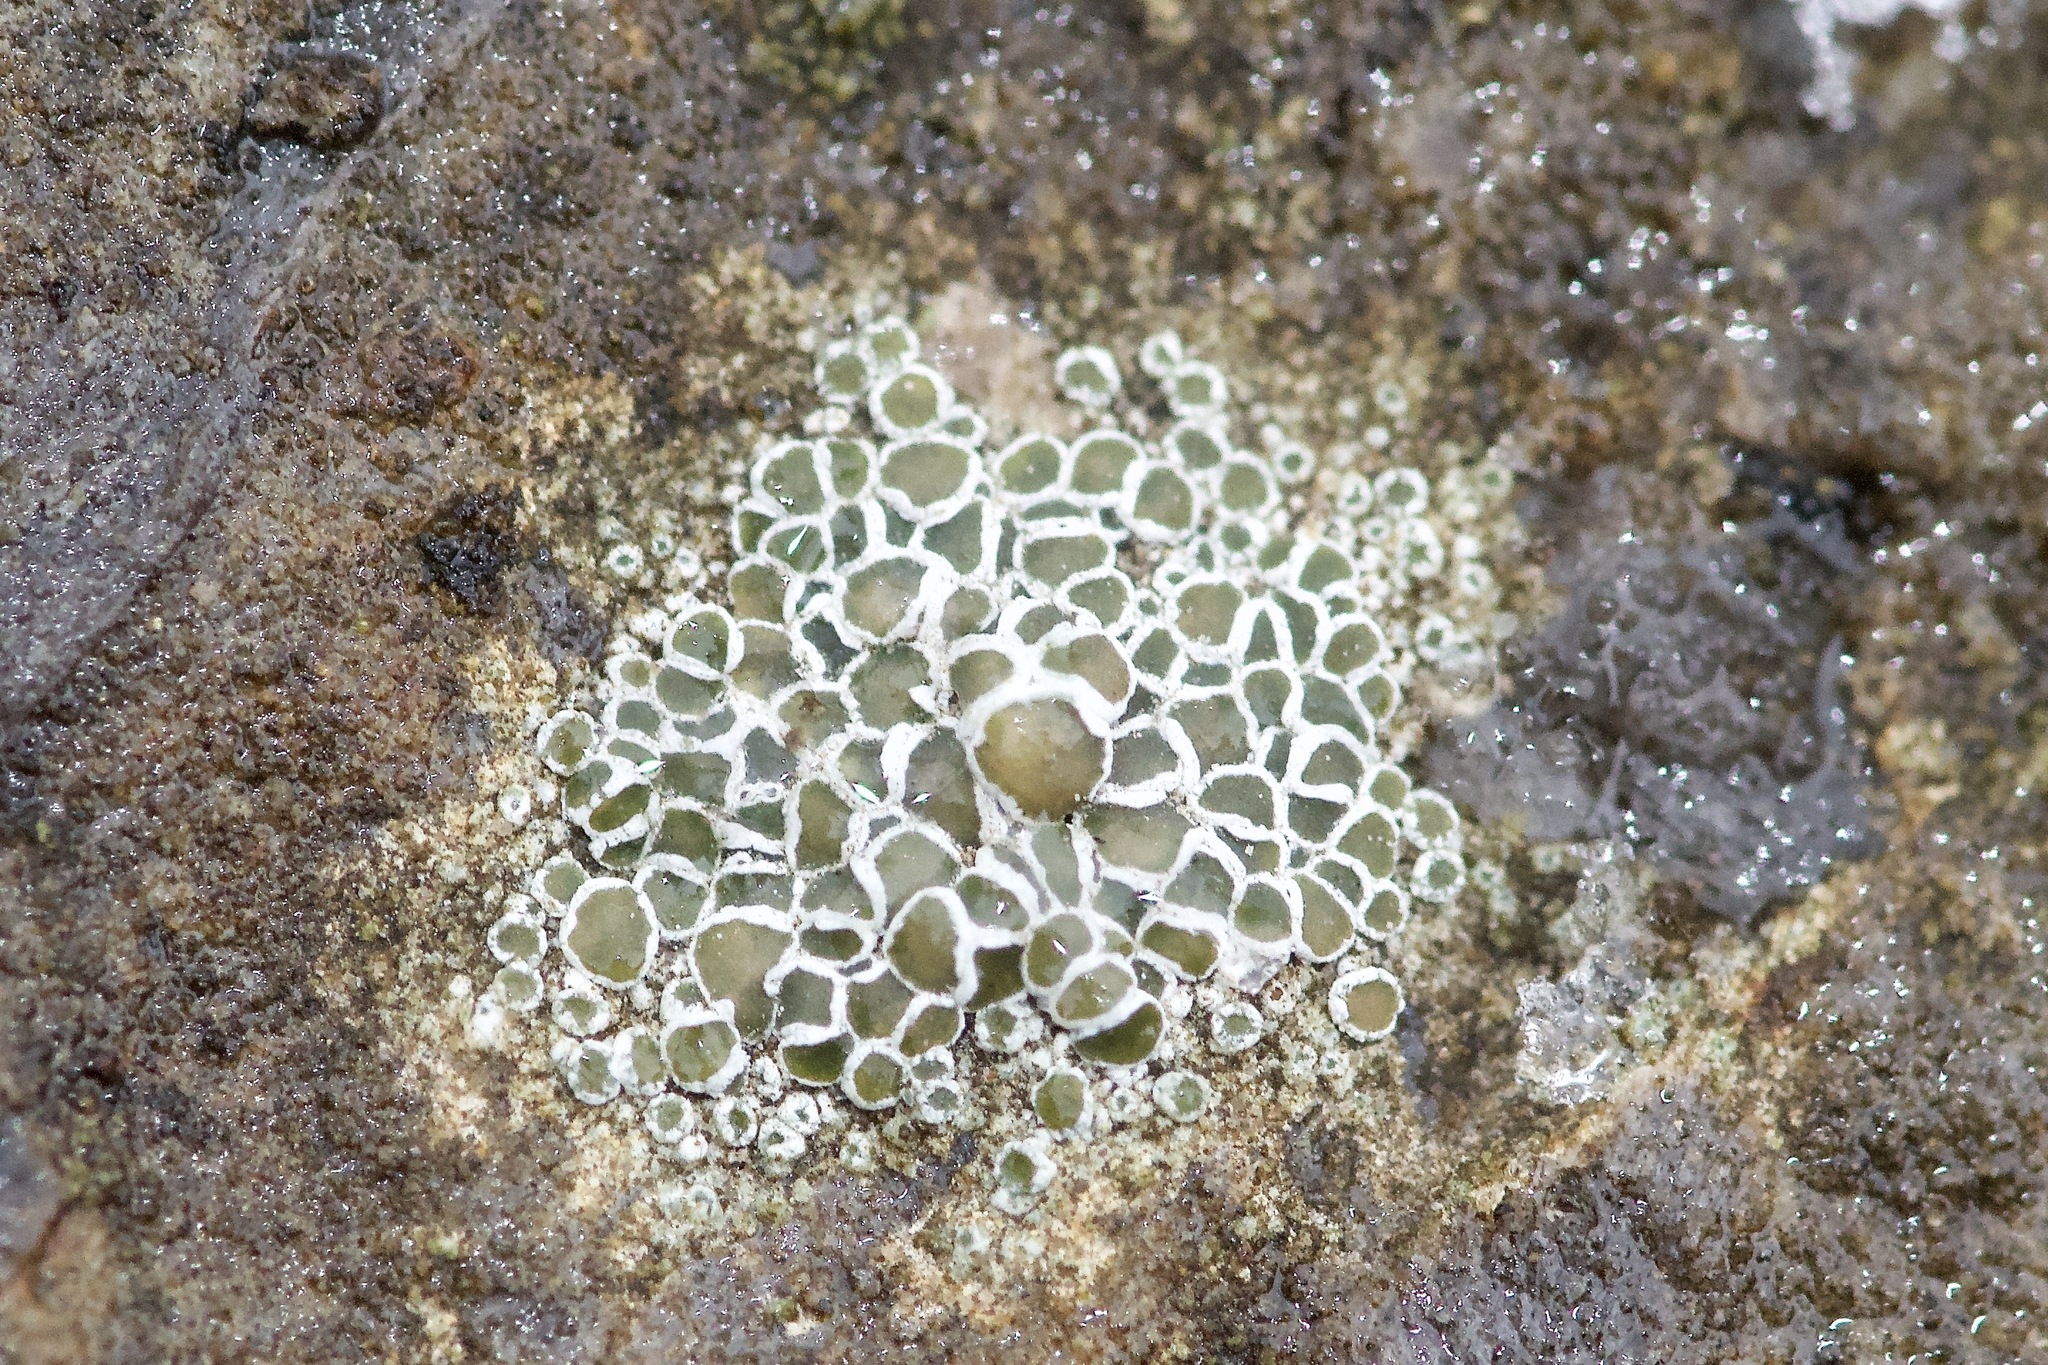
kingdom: Fungi
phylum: Ascomycota
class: Lecanoromycetes
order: Lecanorales
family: Lecanoraceae
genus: Polyozosia
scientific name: Polyozosia dispersa
